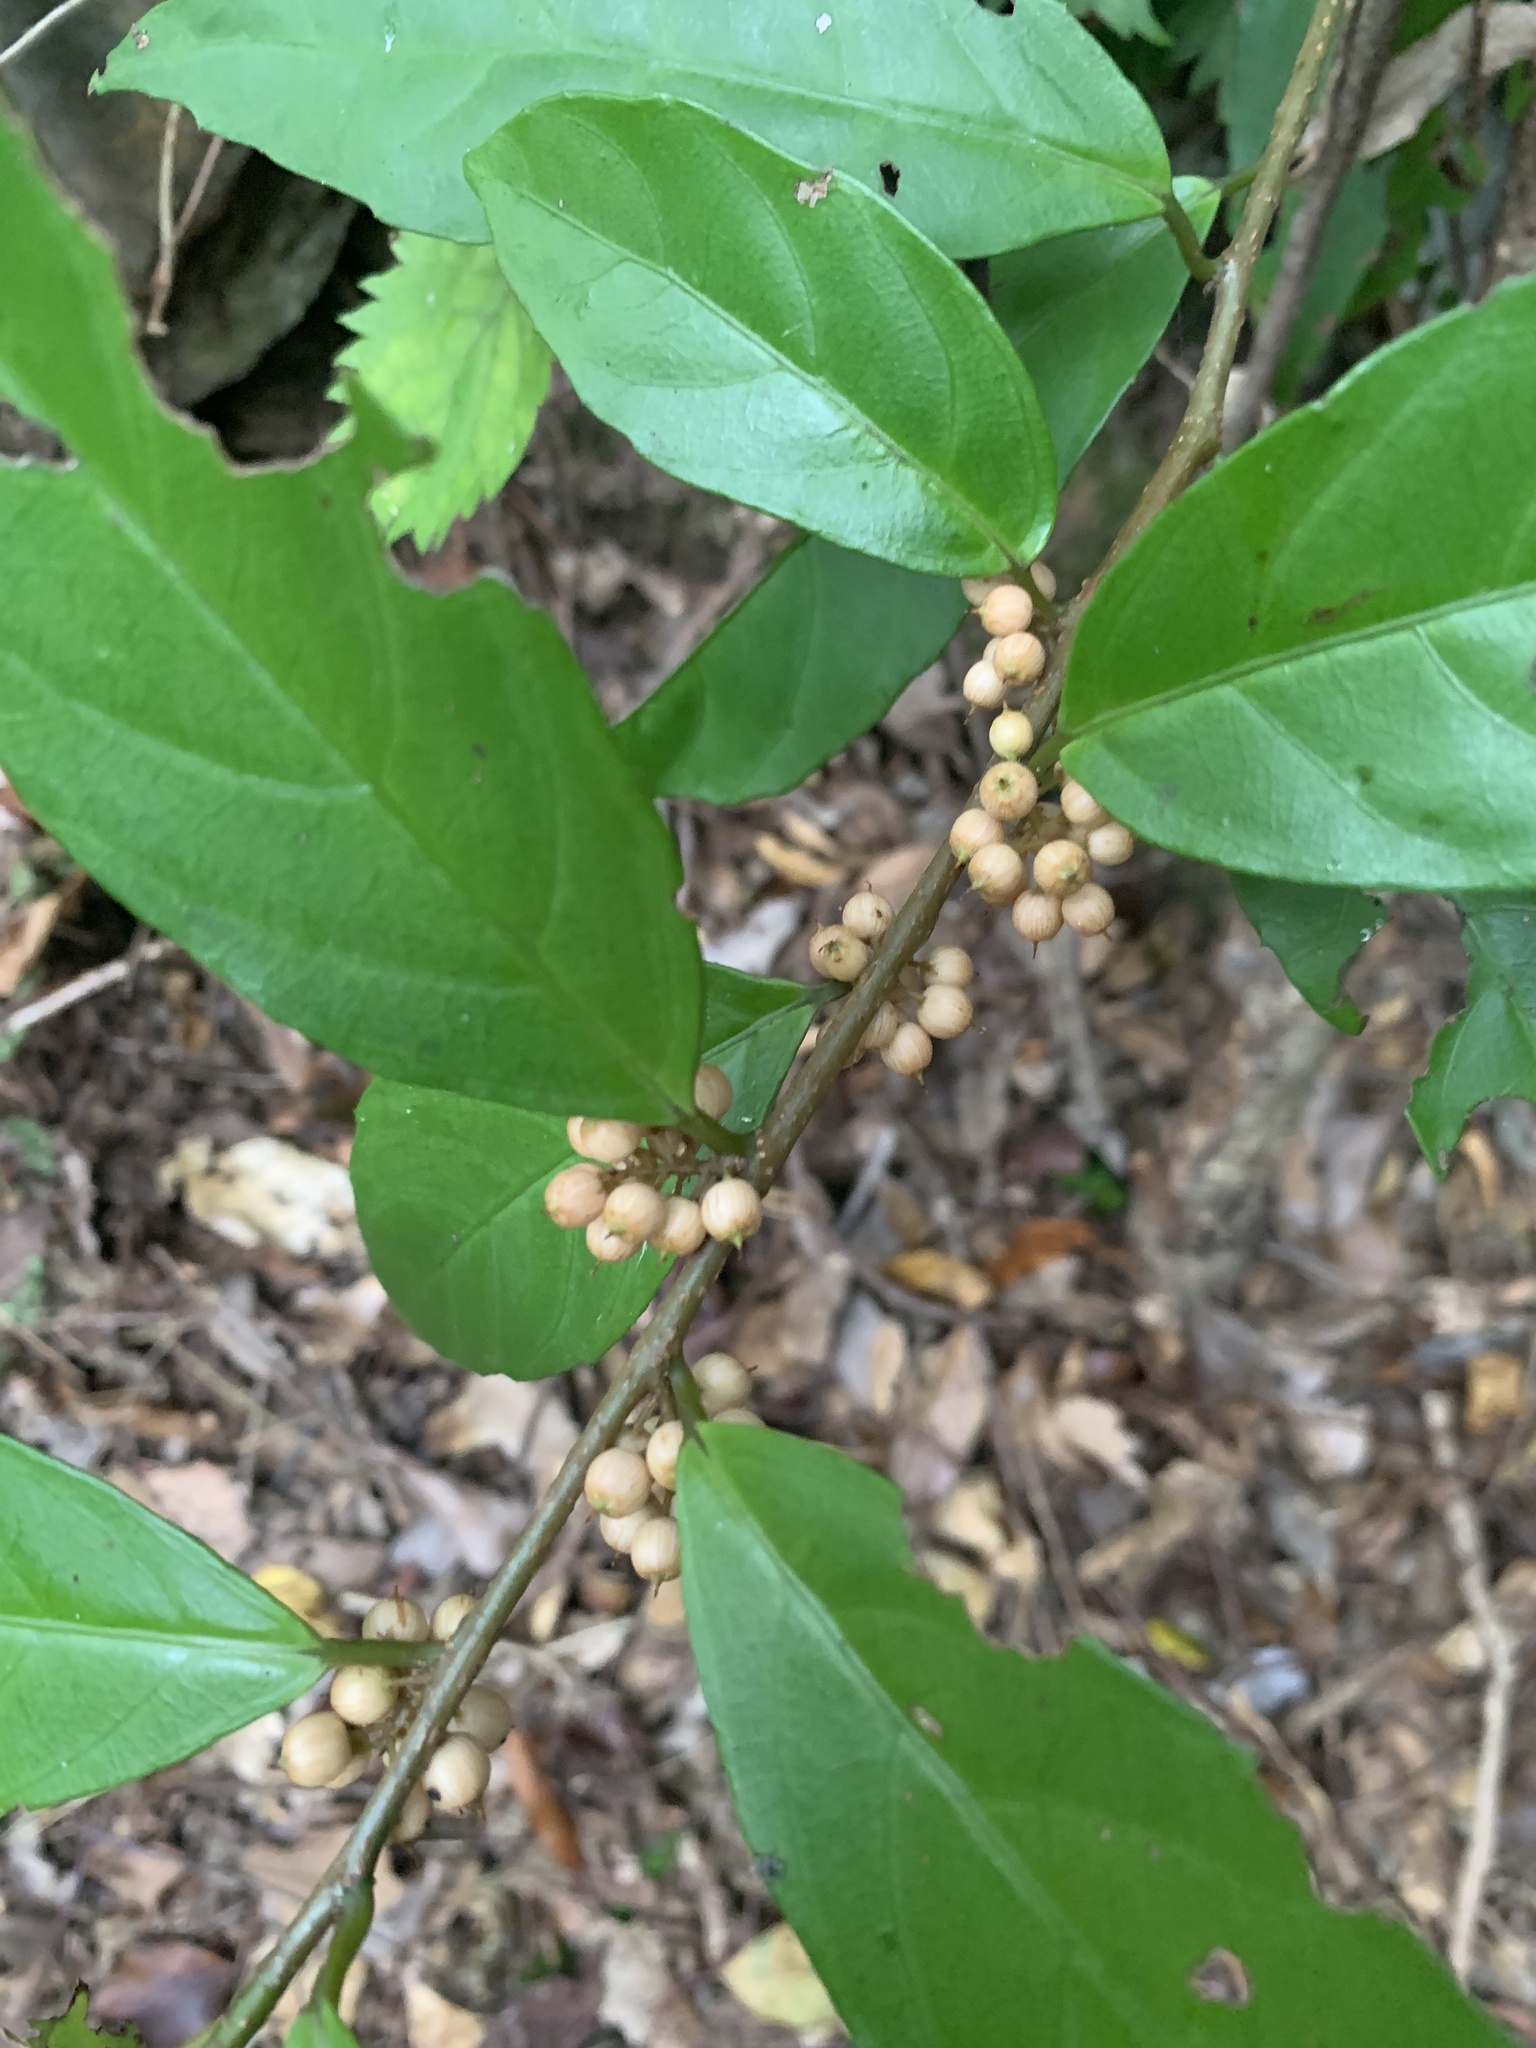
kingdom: Plantae
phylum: Tracheophyta
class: Magnoliopsida
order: Ericales
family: Primulaceae
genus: Maesa
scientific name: Maesa japonica
